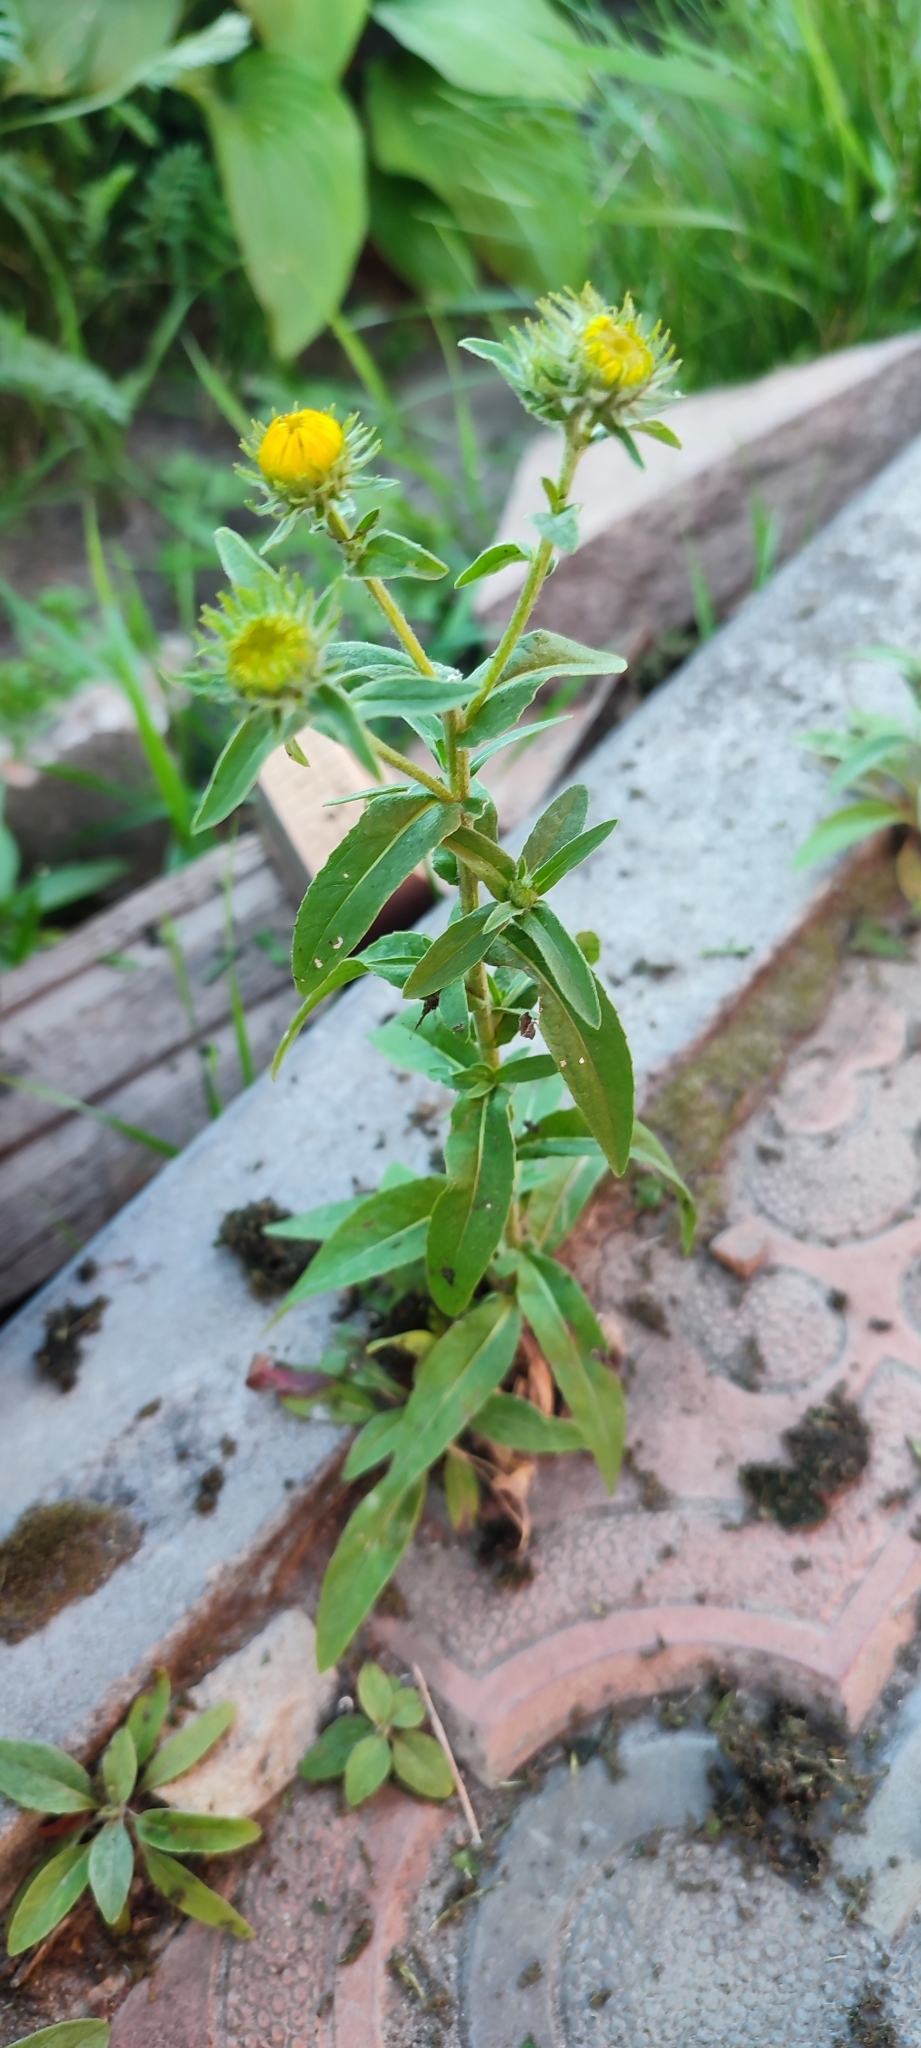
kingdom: Plantae
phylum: Tracheophyta
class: Magnoliopsida
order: Asterales
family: Asteraceae
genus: Pentanema
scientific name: Pentanema britannicum
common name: British elecampane
